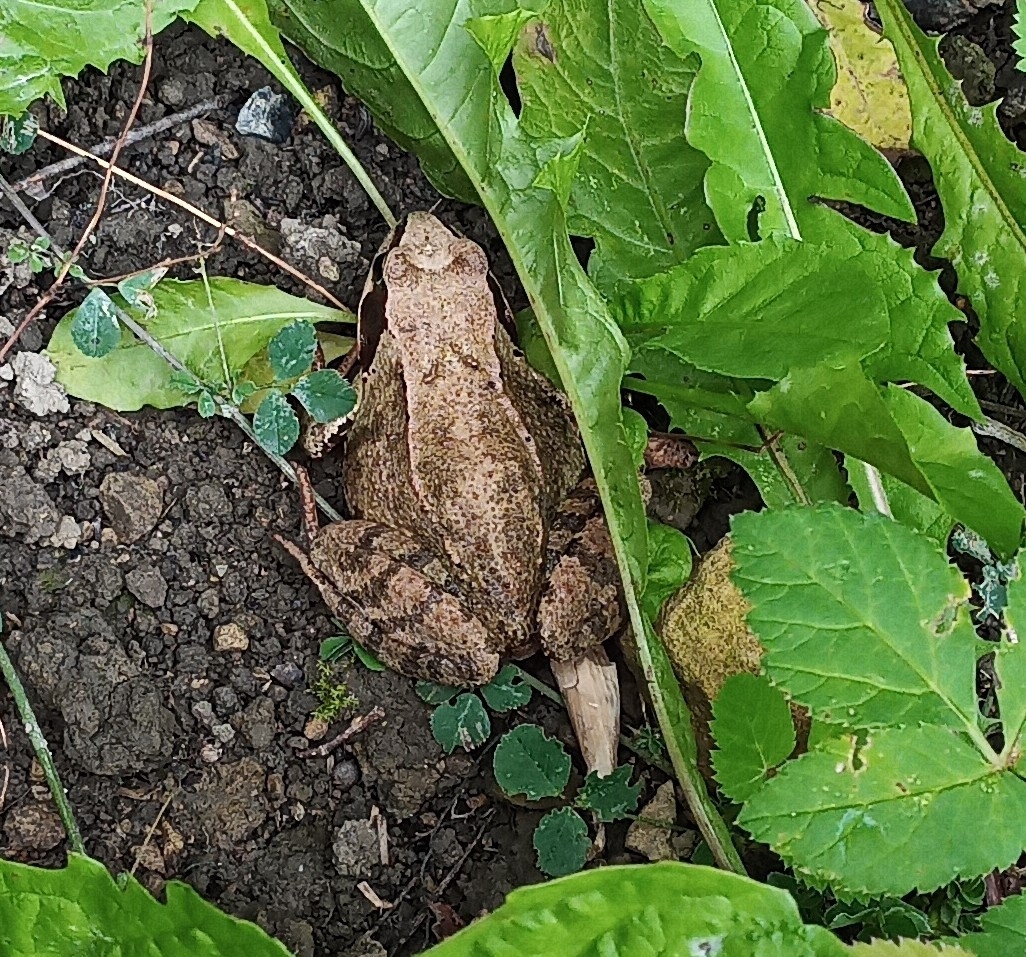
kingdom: Animalia
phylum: Chordata
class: Amphibia
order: Anura
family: Ranidae
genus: Rana
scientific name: Rana temporaria
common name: Common frog
